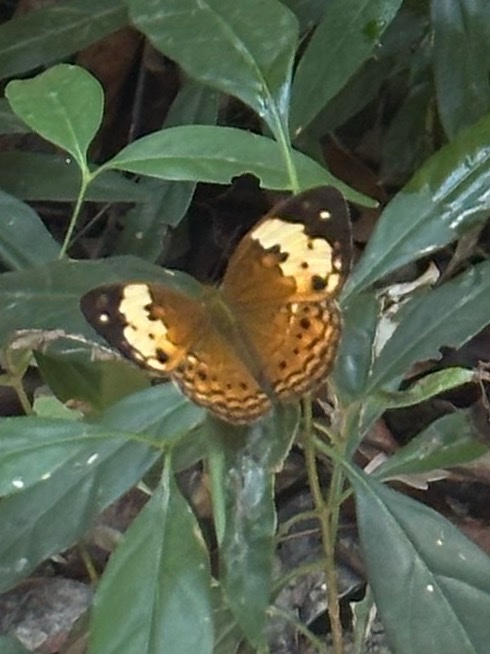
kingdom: Animalia
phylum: Arthropoda
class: Insecta
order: Lepidoptera
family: Nymphalidae
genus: Cupha
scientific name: Cupha erymanthis
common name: Rustic
